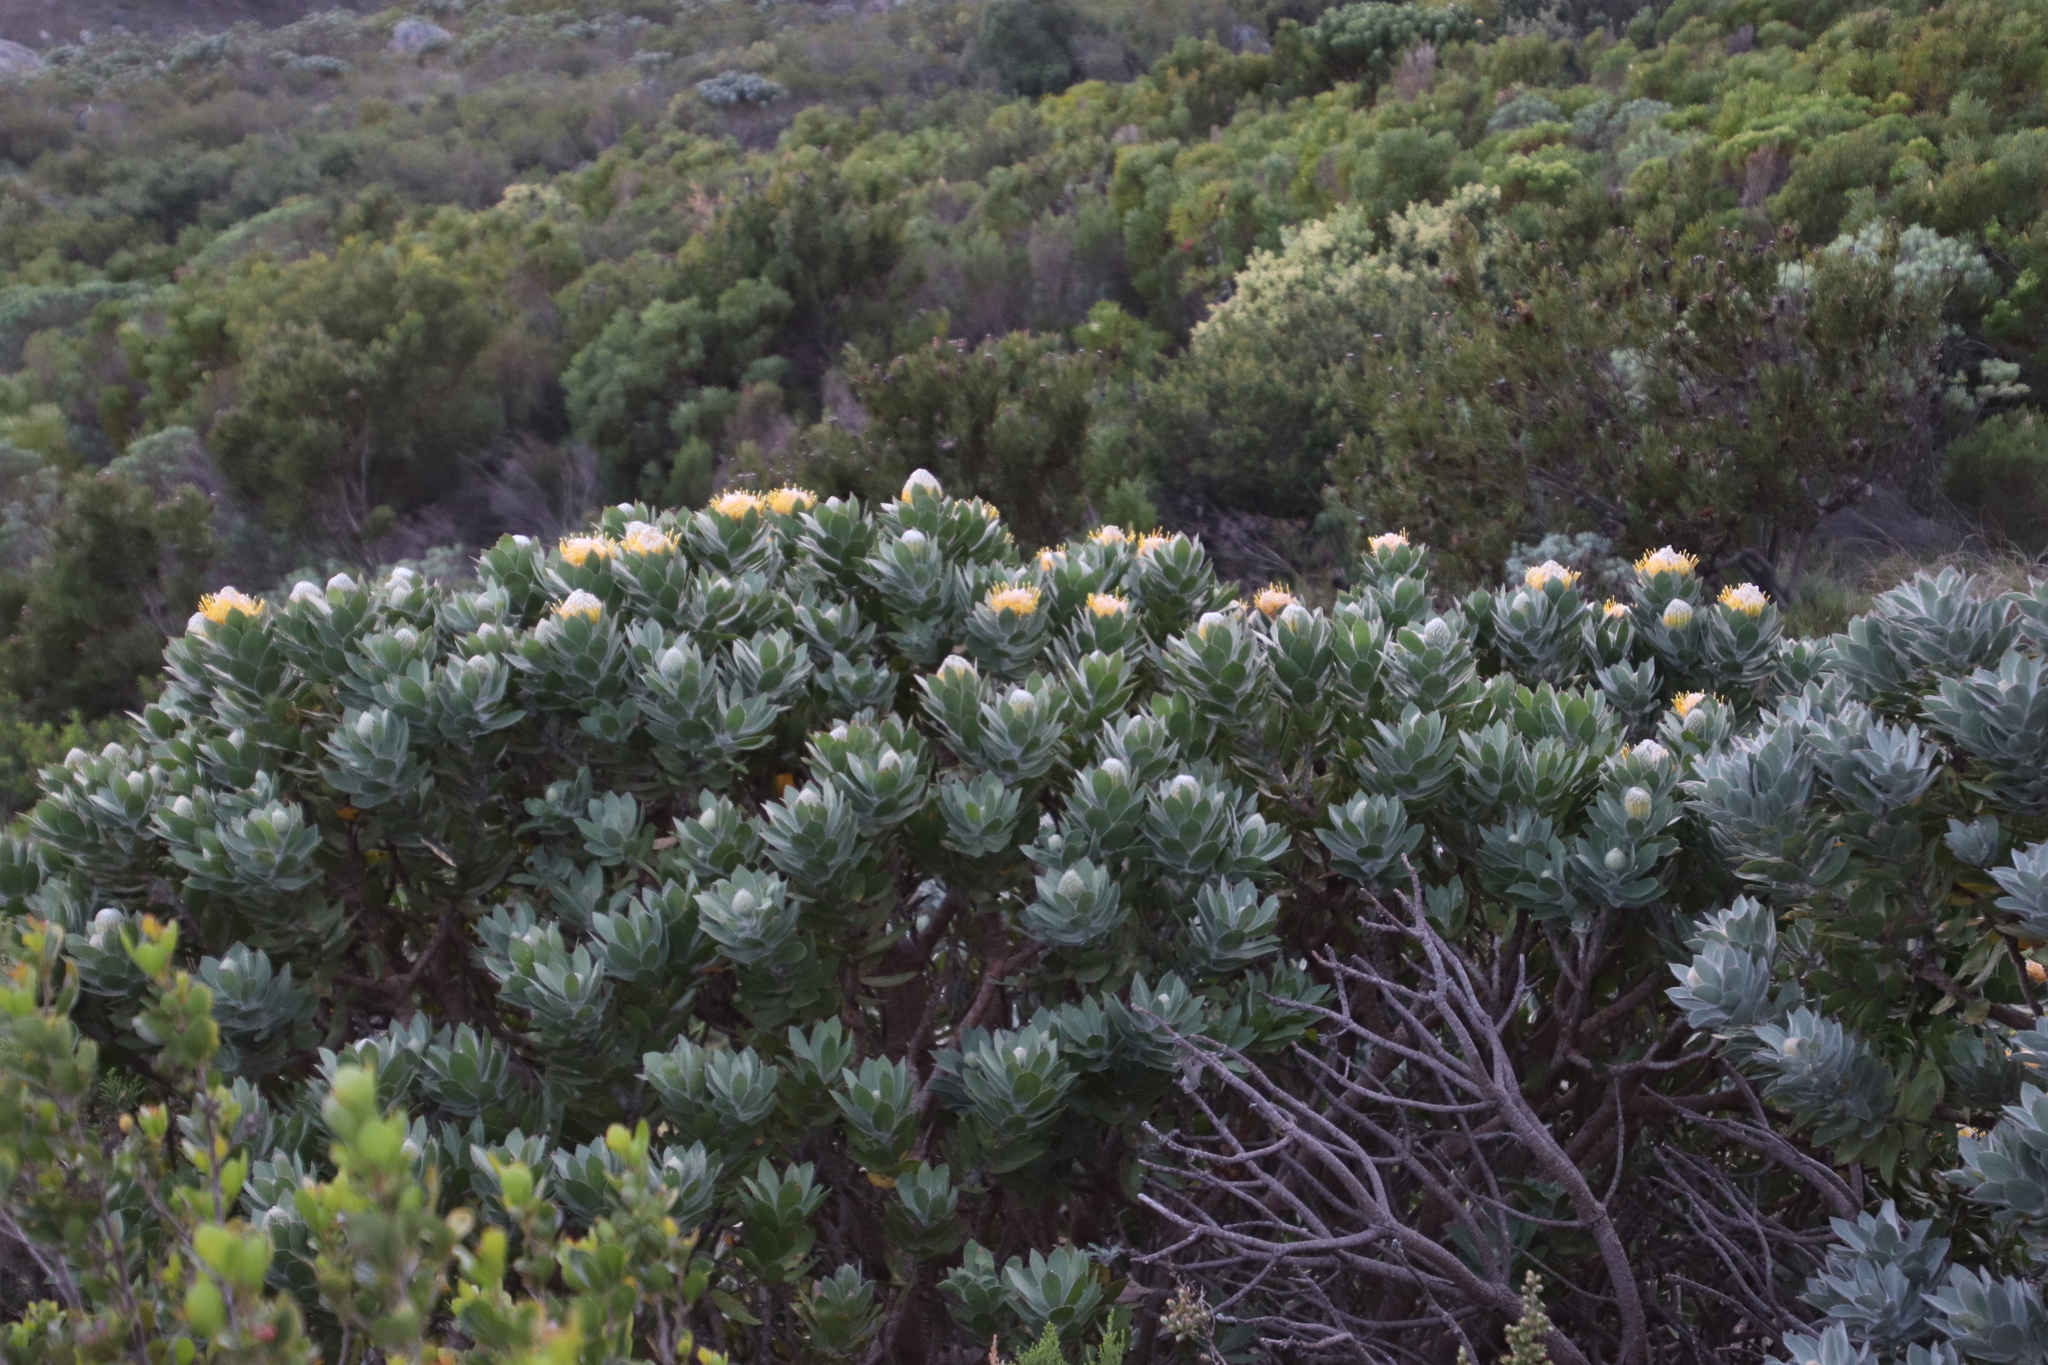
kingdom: Plantae
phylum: Tracheophyta
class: Magnoliopsida
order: Proteales
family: Proteaceae
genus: Leucospermum
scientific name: Leucospermum conocarpodendron
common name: Tree pincushion
